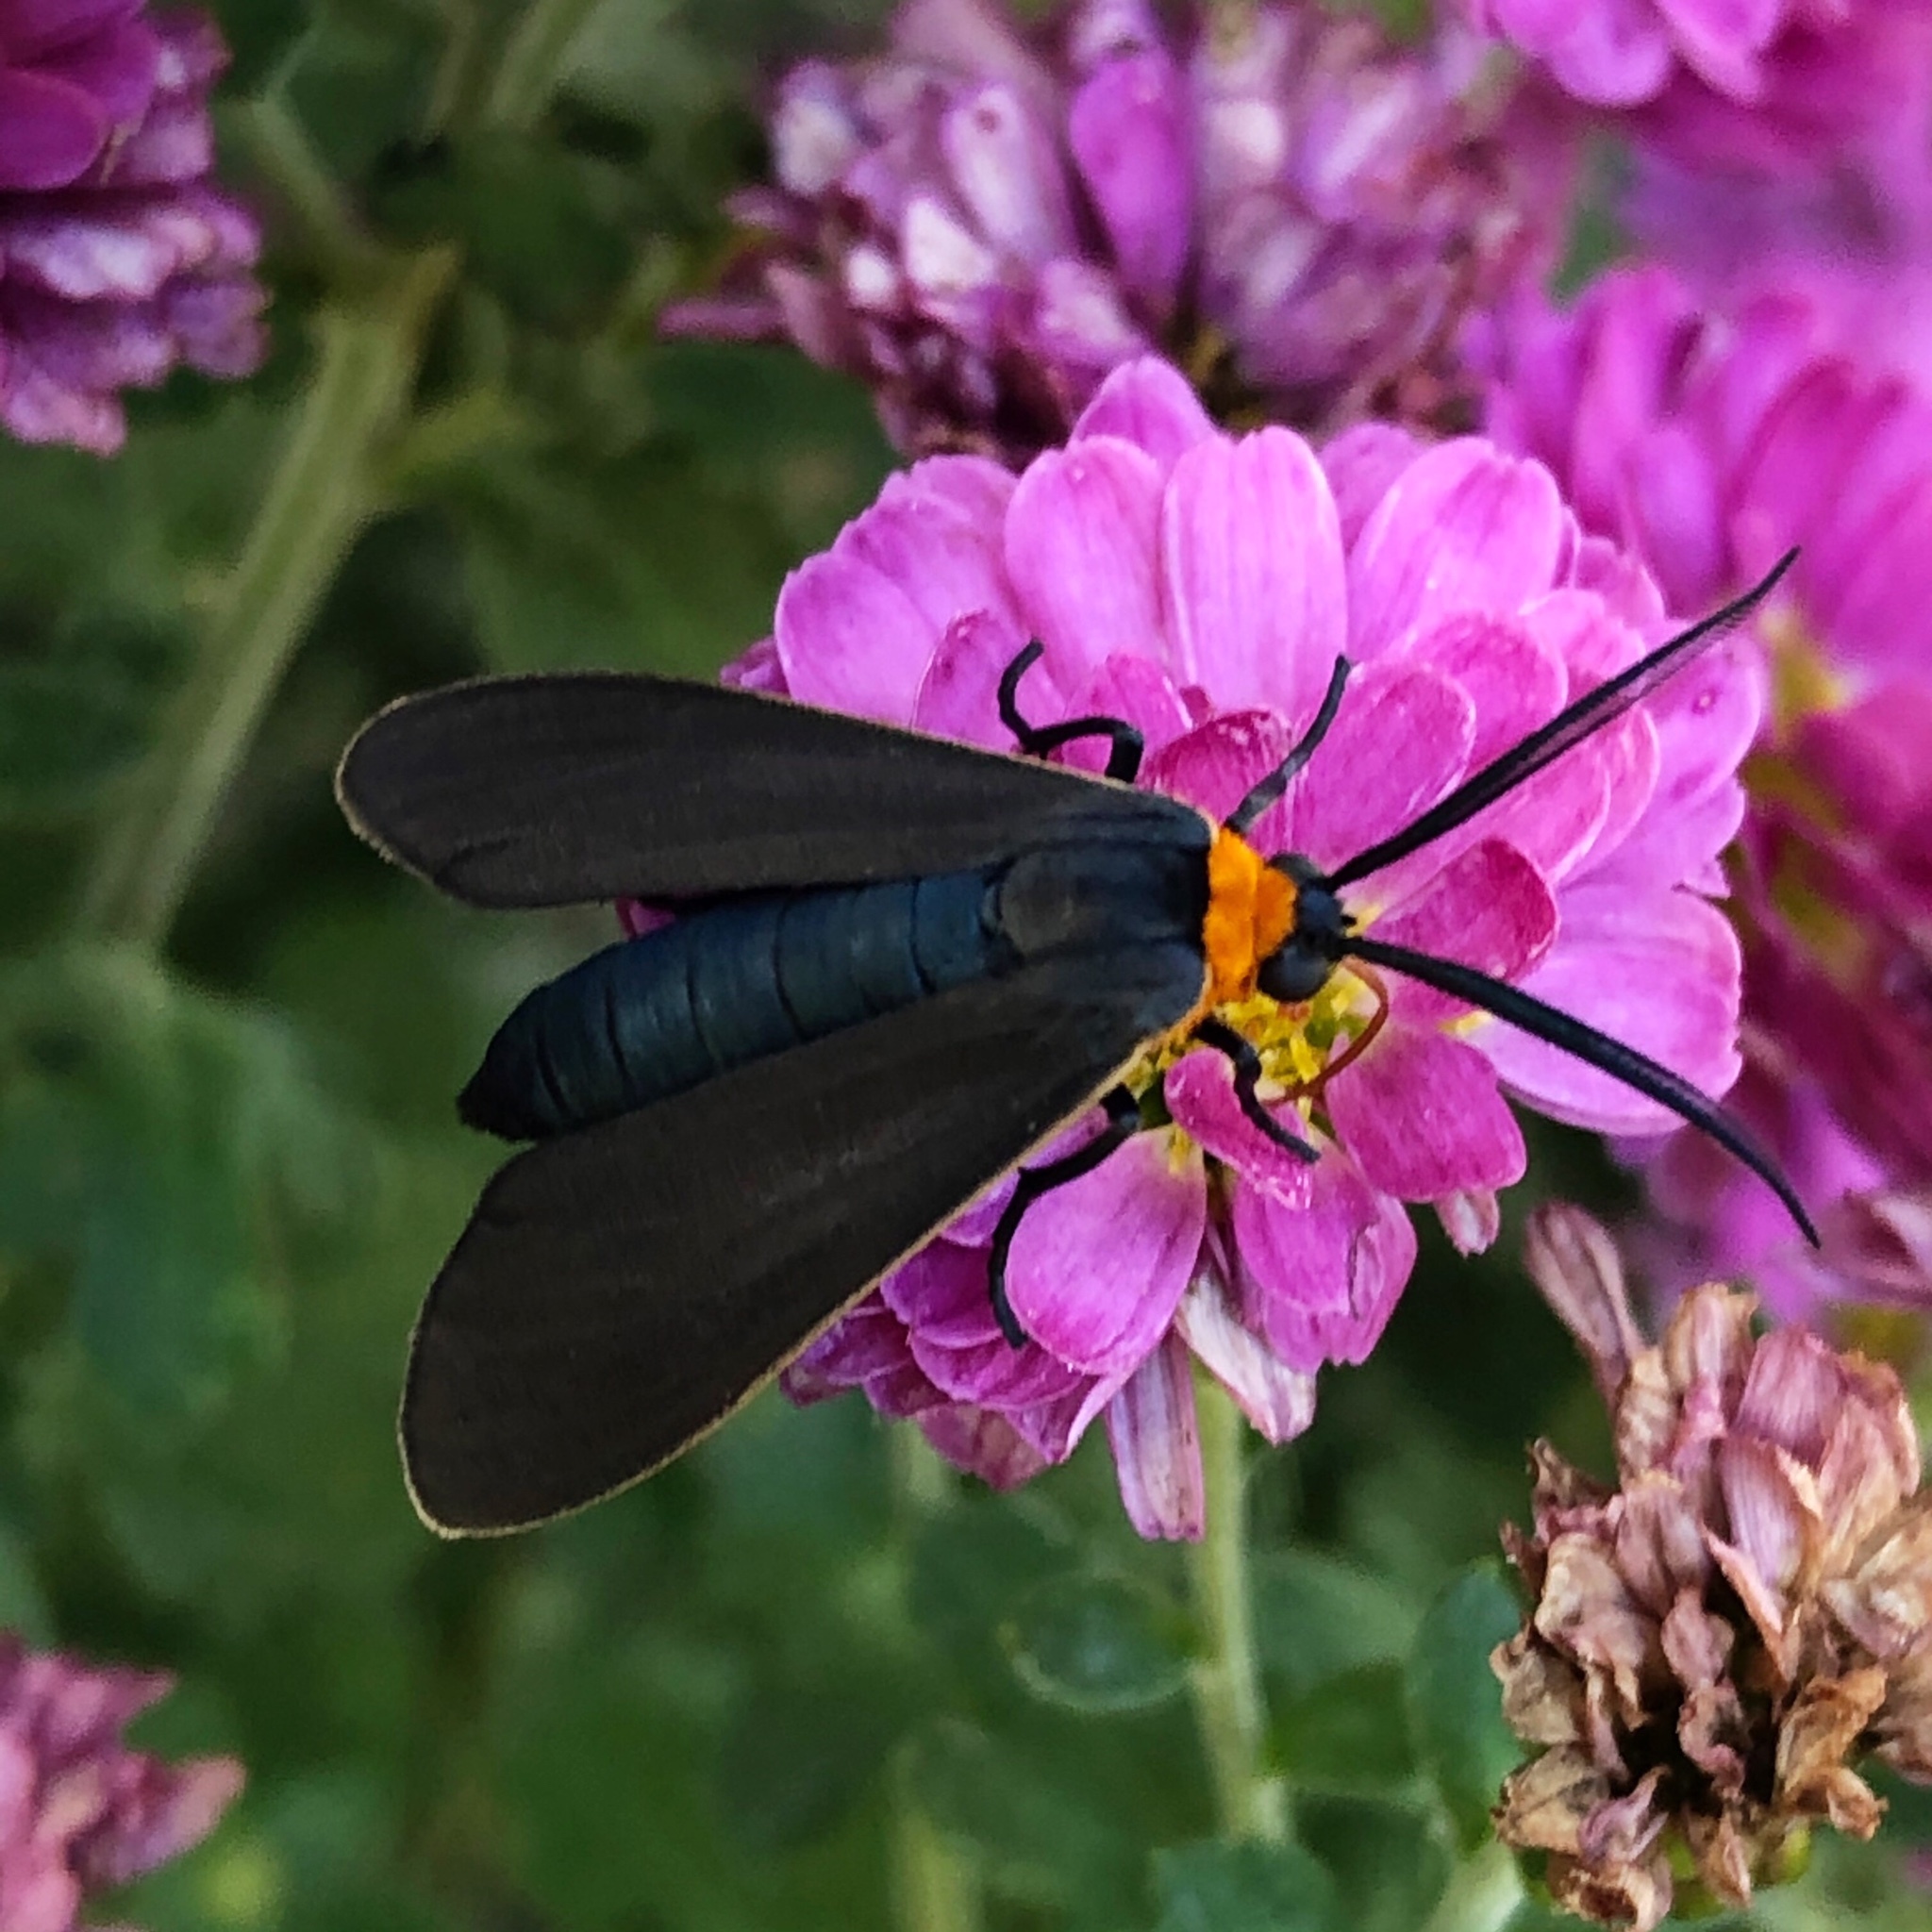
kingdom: Animalia
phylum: Arthropoda
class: Insecta
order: Lepidoptera
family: Erebidae
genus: Cisseps
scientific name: Cisseps fulvicollis
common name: Yellow-collared scape moth
